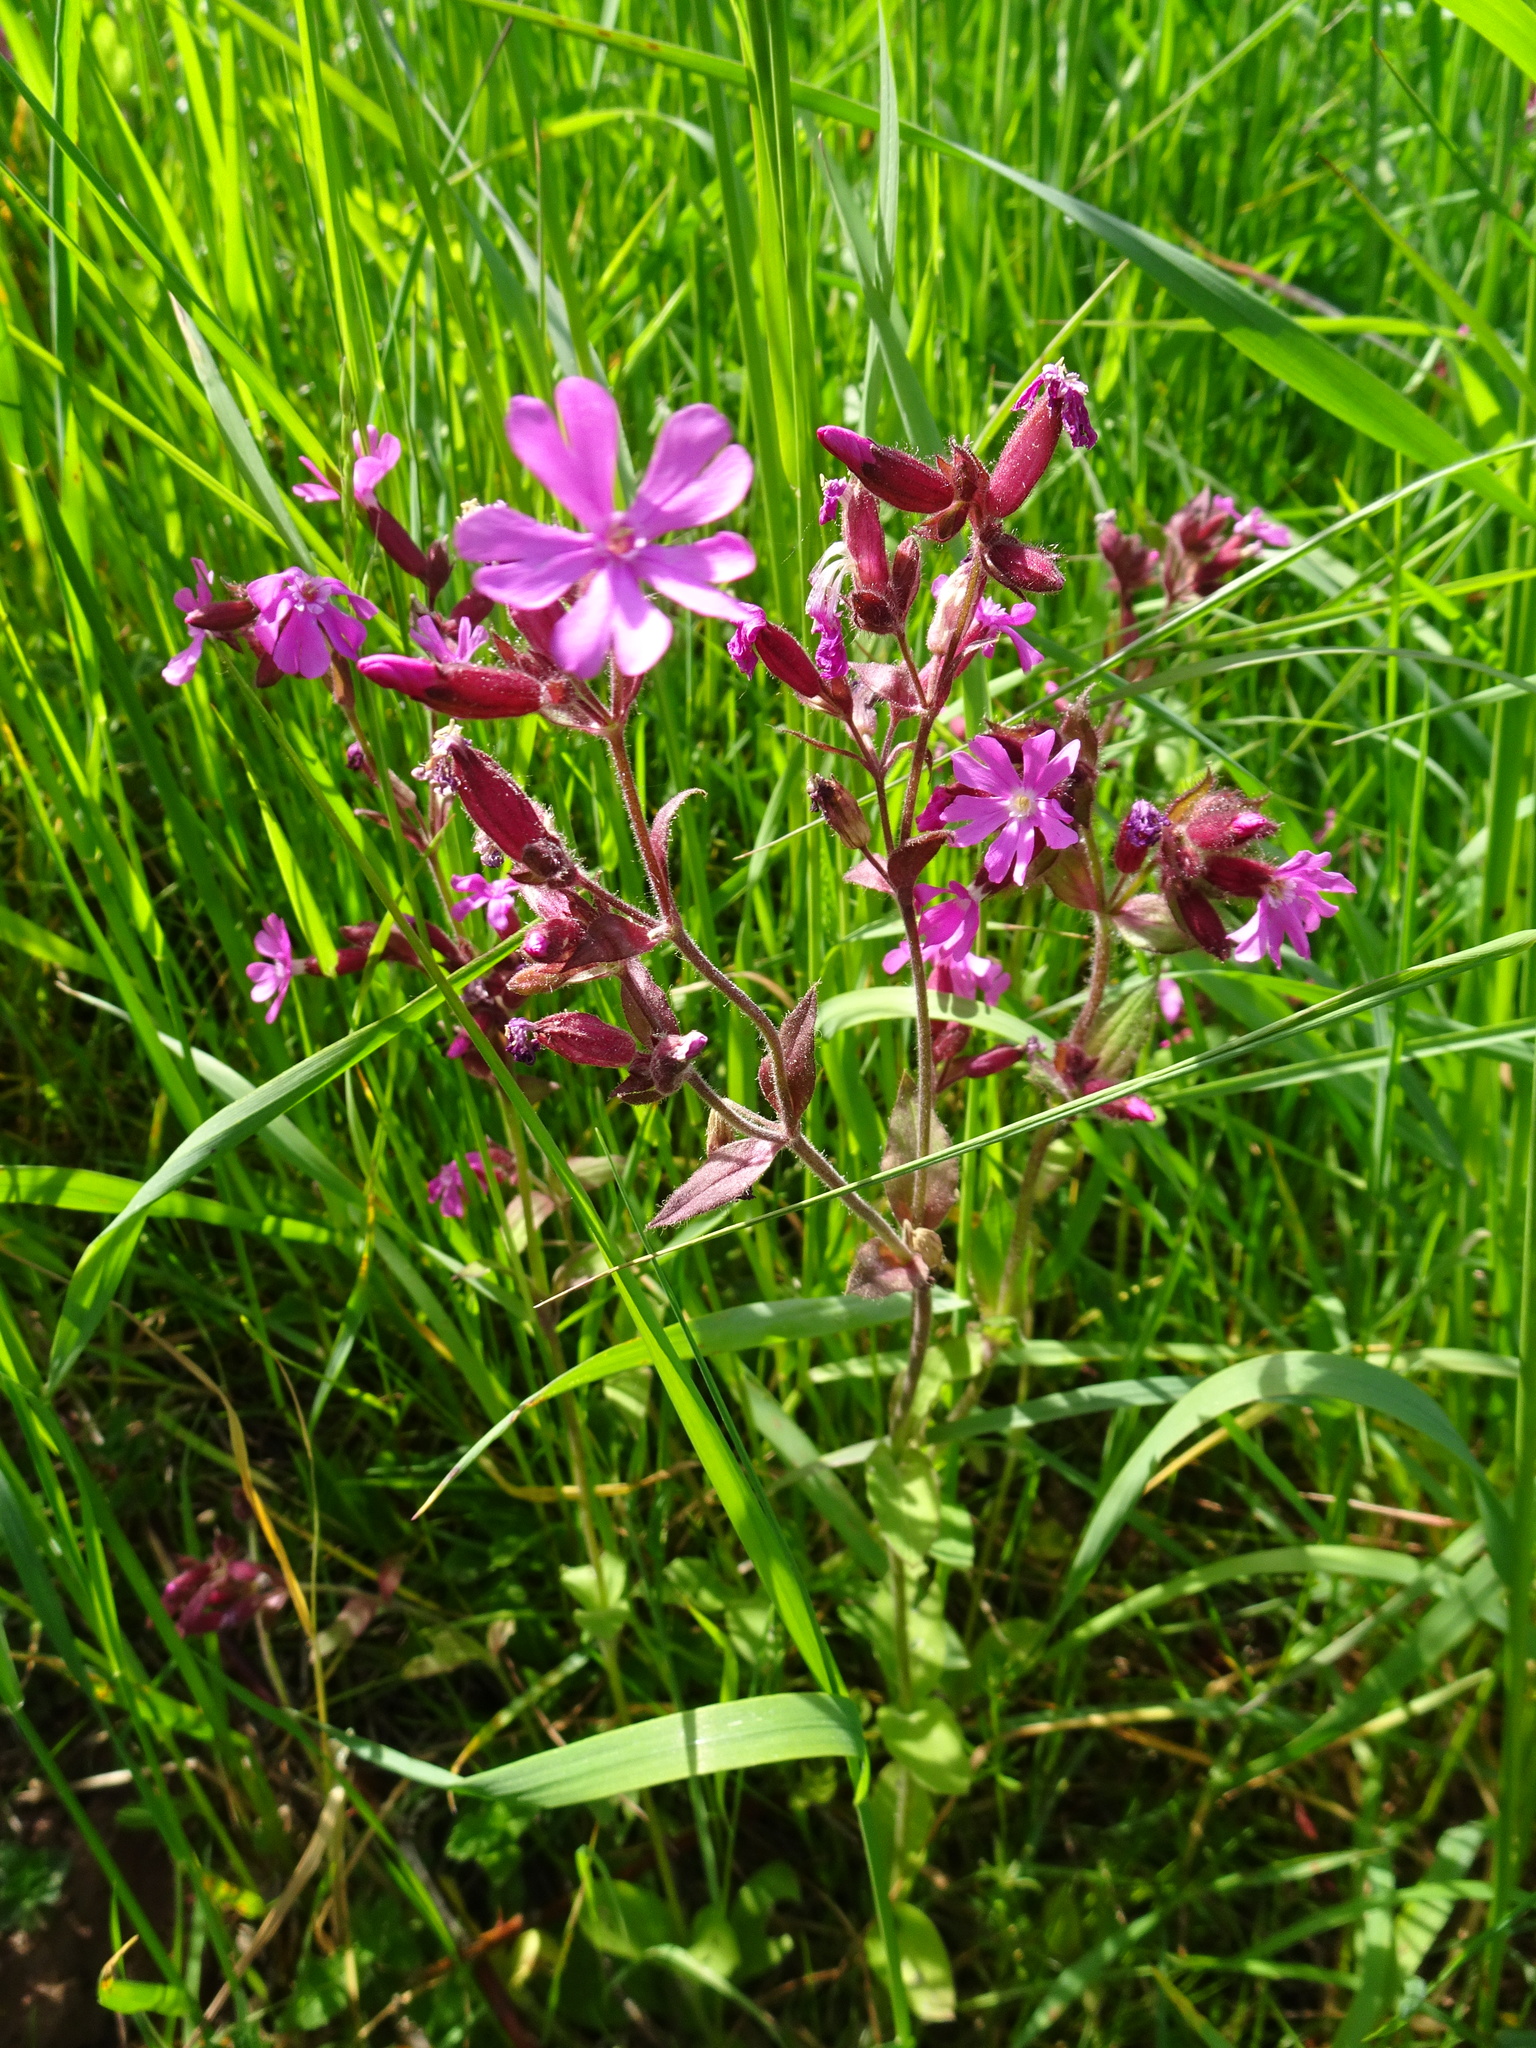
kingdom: Plantae
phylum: Tracheophyta
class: Magnoliopsida
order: Caryophyllales
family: Caryophyllaceae
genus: Silene
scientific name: Silene dioica
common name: Red campion
